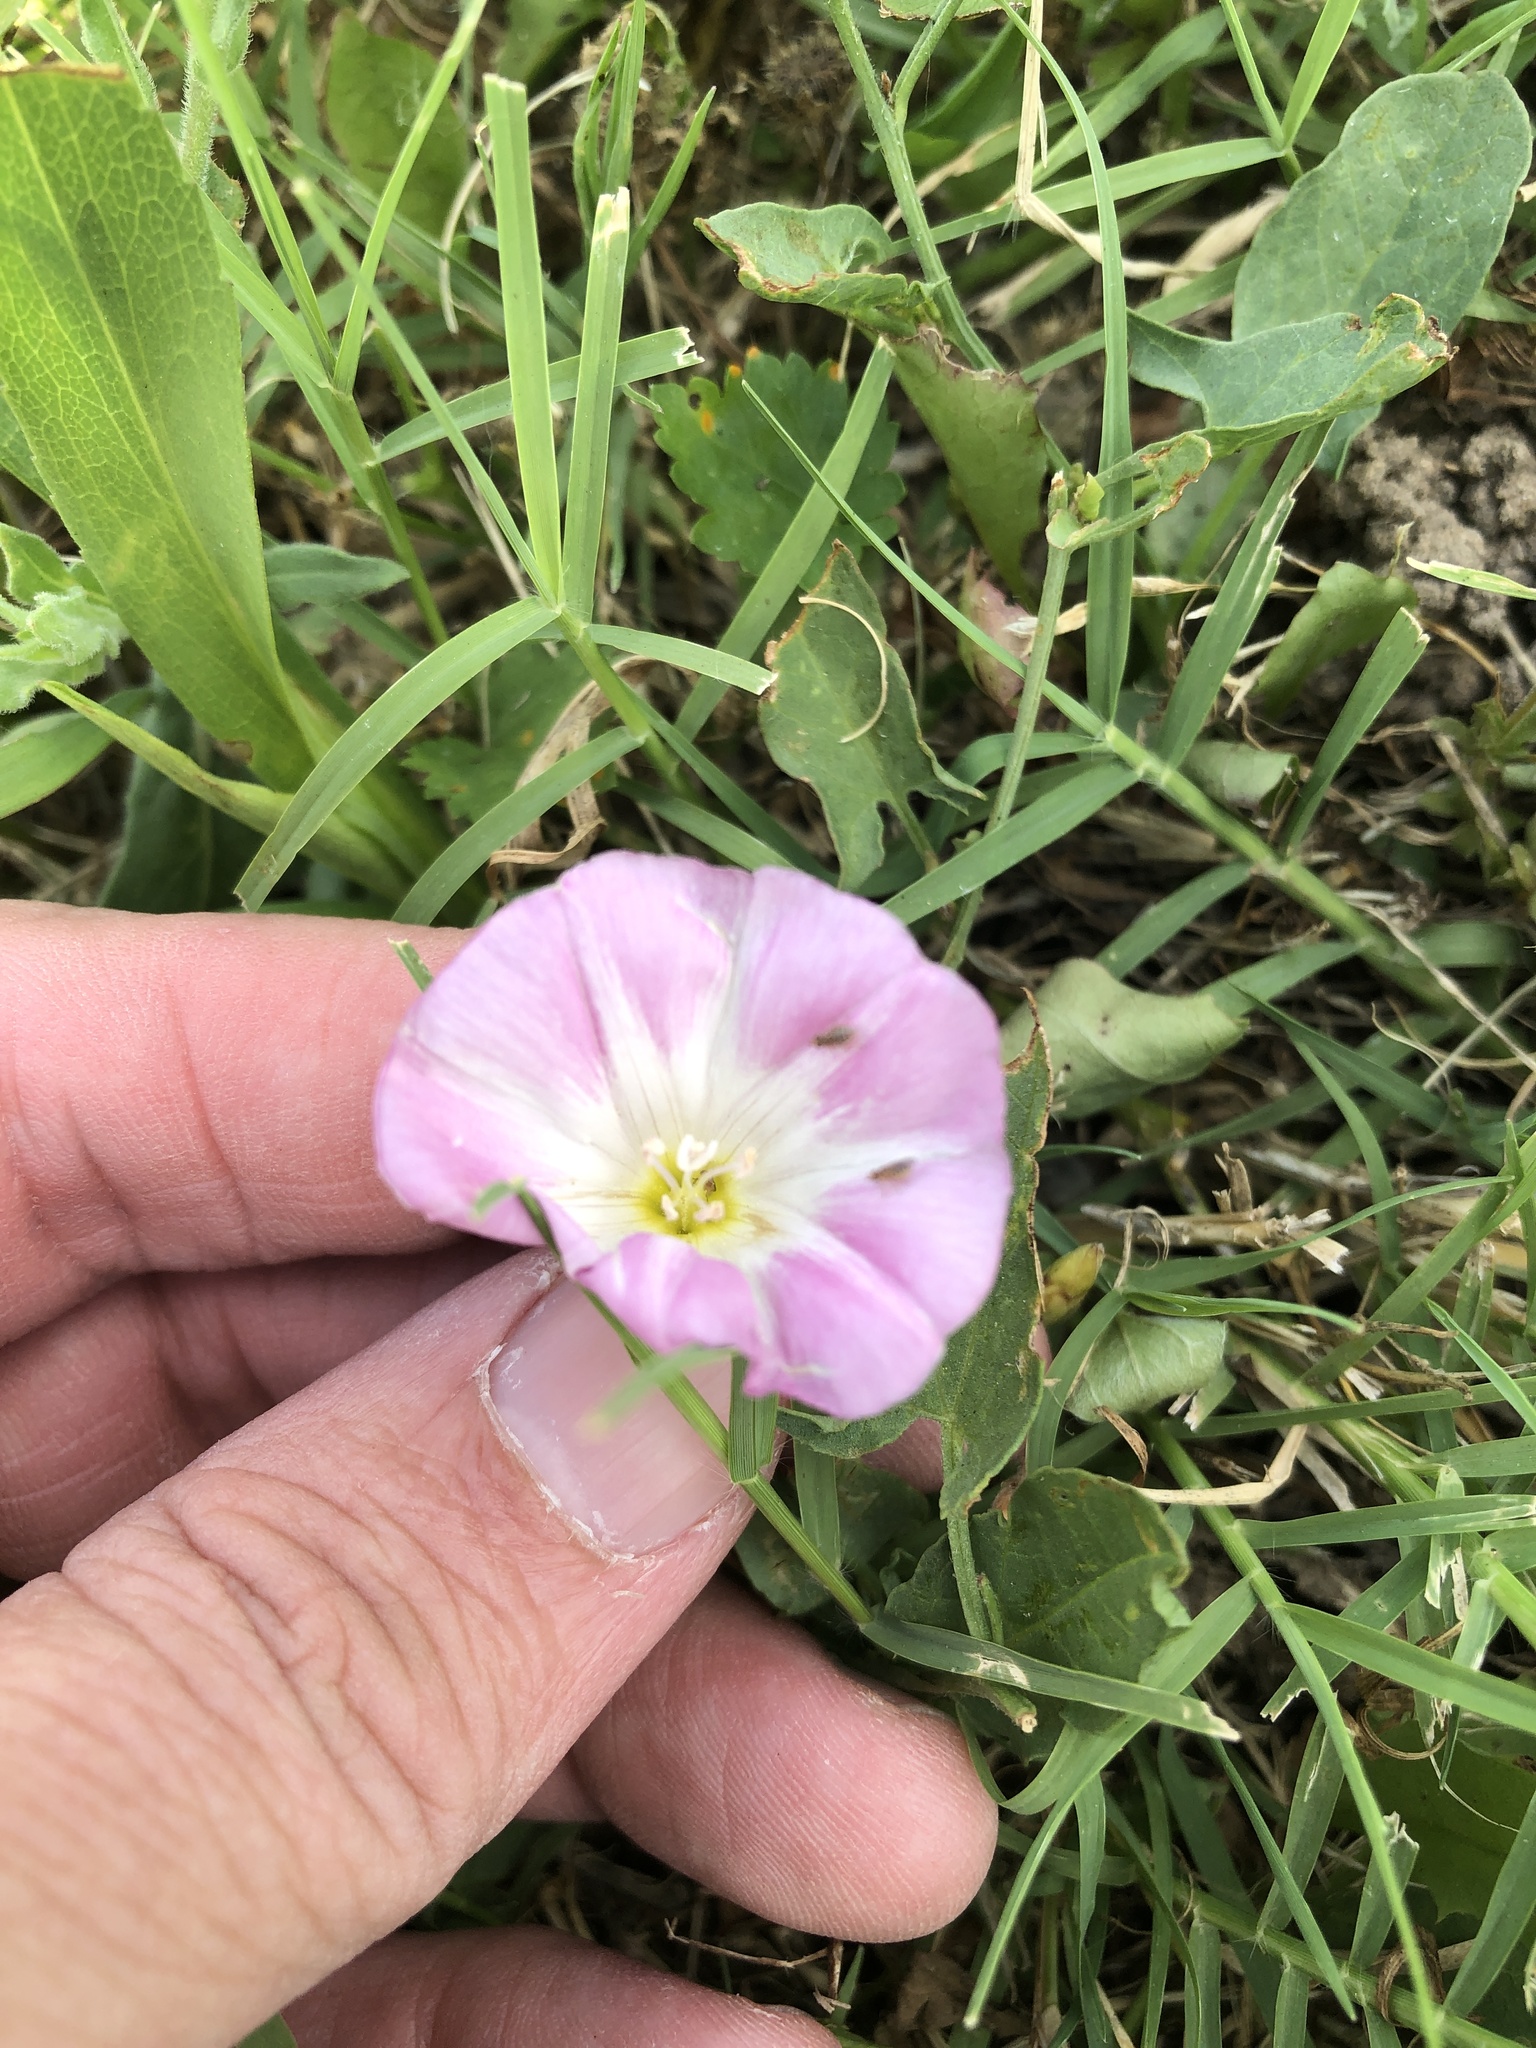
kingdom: Plantae
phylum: Tracheophyta
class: Magnoliopsida
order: Solanales
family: Convolvulaceae
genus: Convolvulus
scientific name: Convolvulus arvensis
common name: Field bindweed
